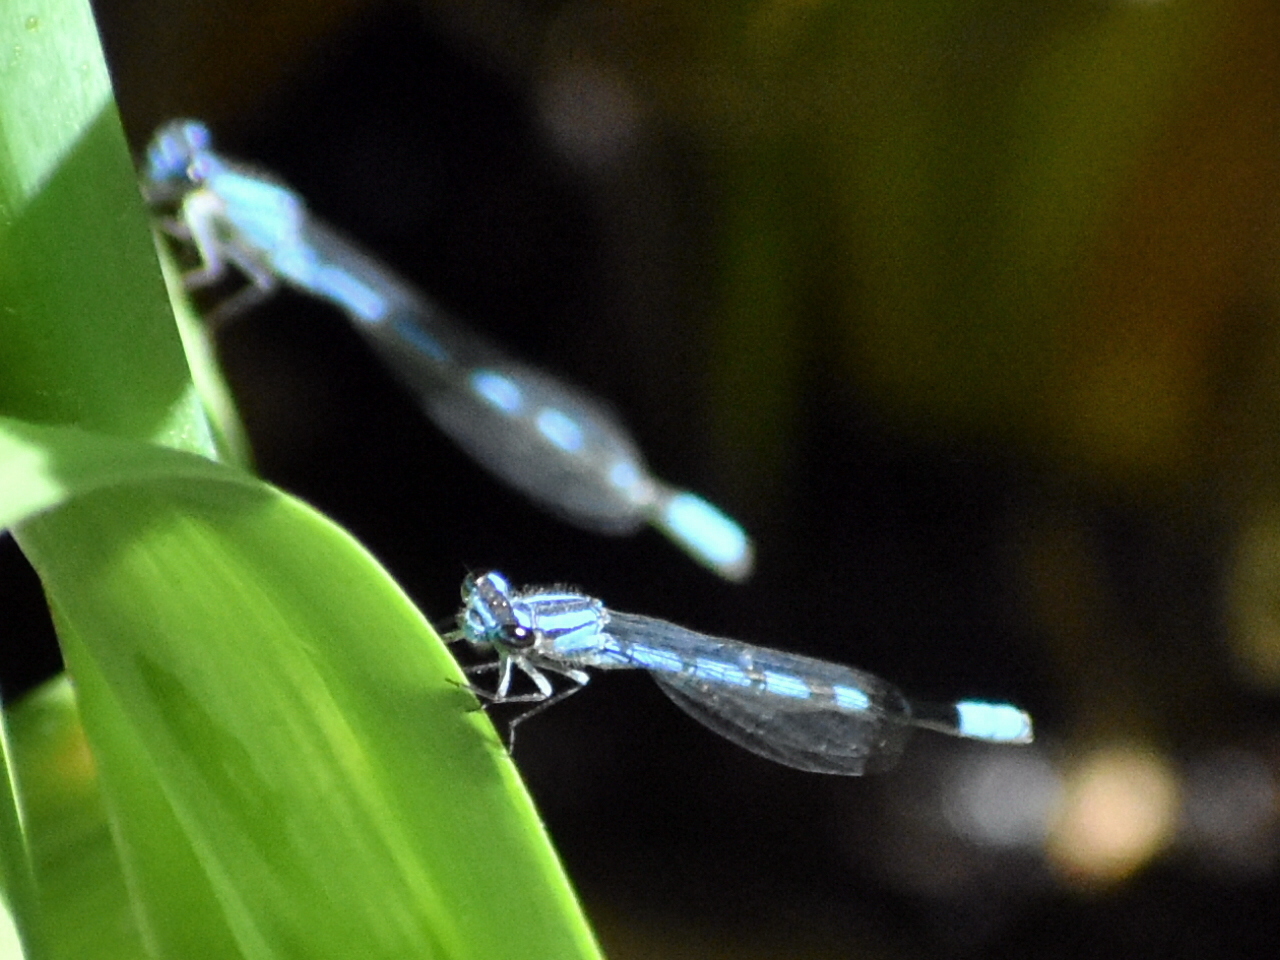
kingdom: Animalia
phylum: Arthropoda
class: Insecta
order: Odonata
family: Coenagrionidae
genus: Argia
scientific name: Argia vivida
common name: Vivid dancer
